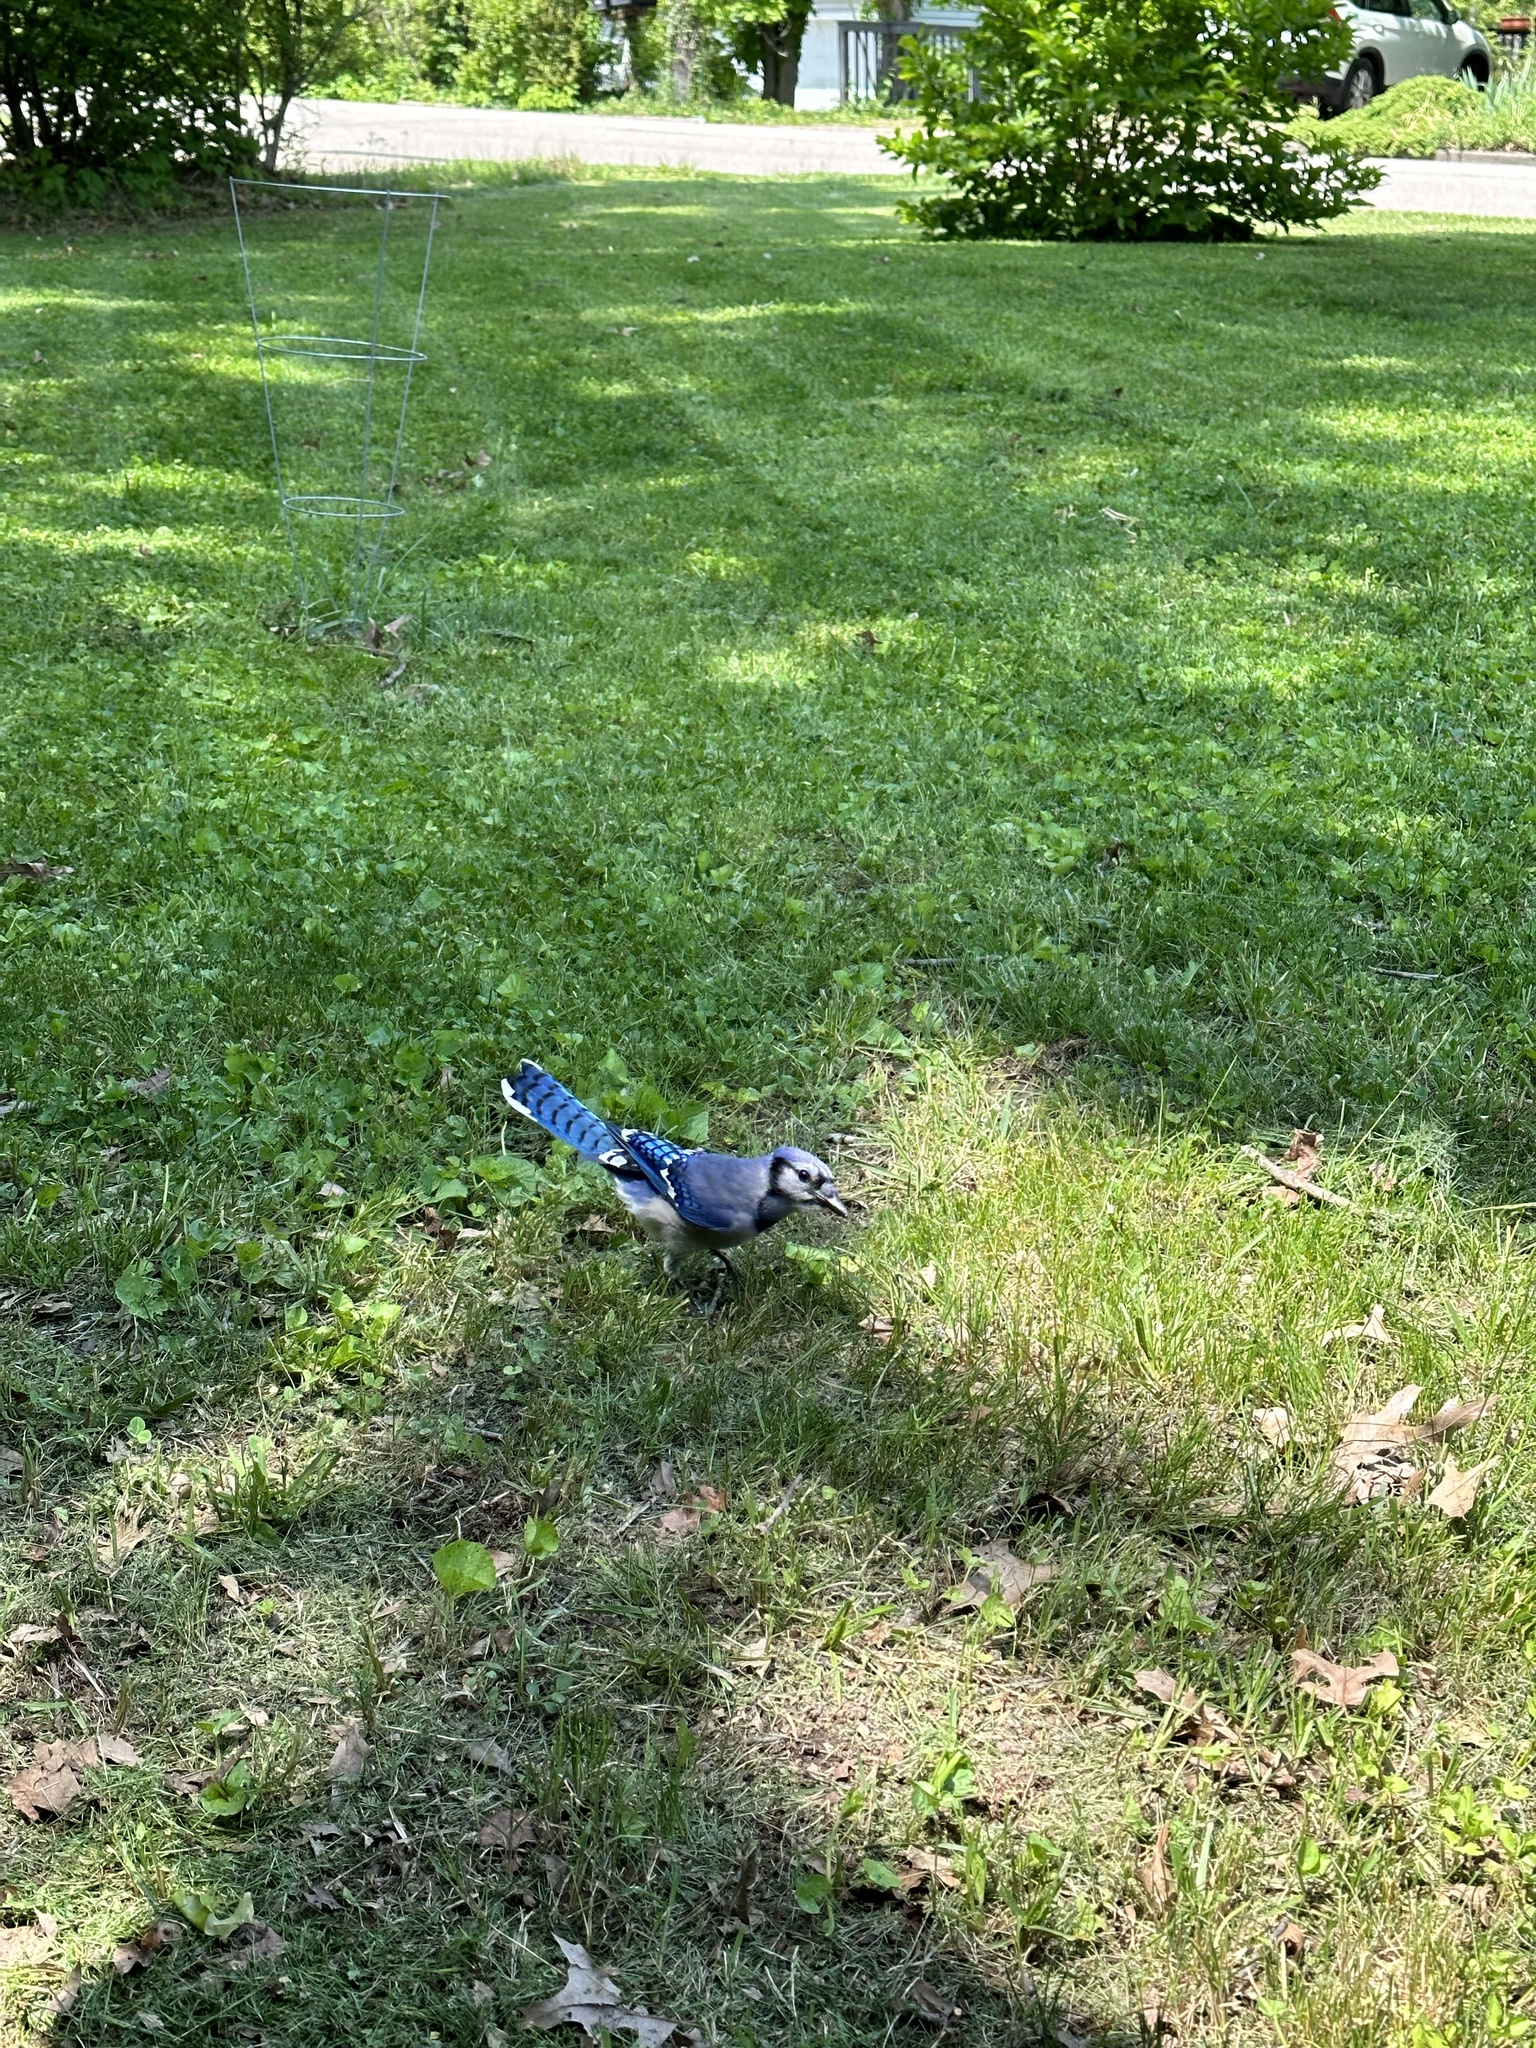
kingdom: Animalia
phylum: Chordata
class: Aves
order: Passeriformes
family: Corvidae
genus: Cyanocitta
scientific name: Cyanocitta cristata
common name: Blue jay
